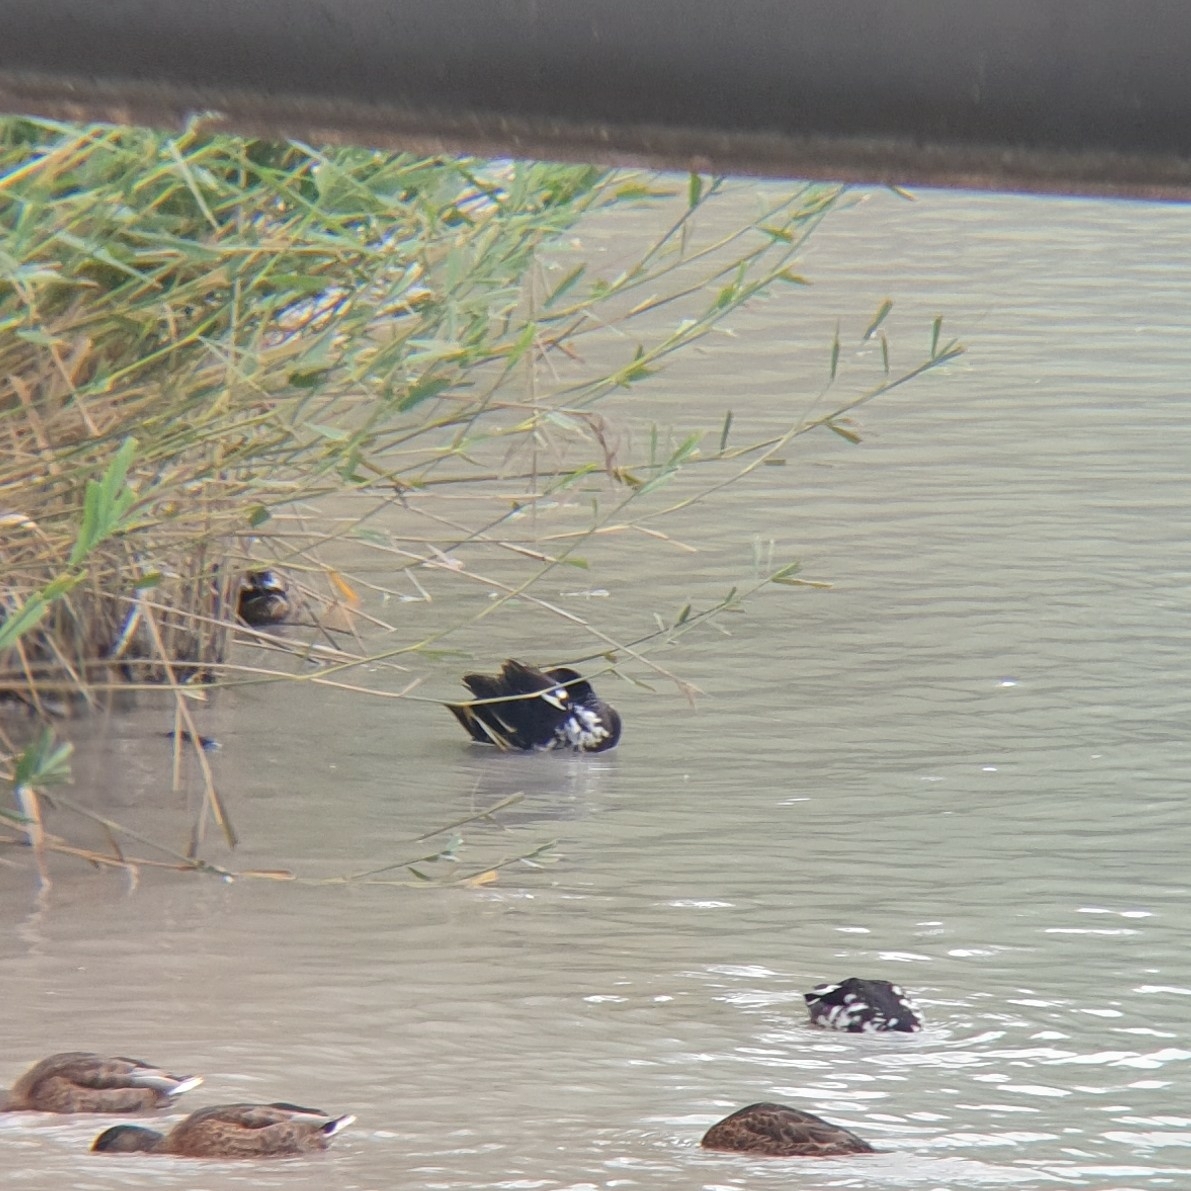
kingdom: Animalia
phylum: Chordata
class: Aves
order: Anseriformes
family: Anatidae
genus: Anas
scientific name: Anas platyrhynchos
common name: Mallard
